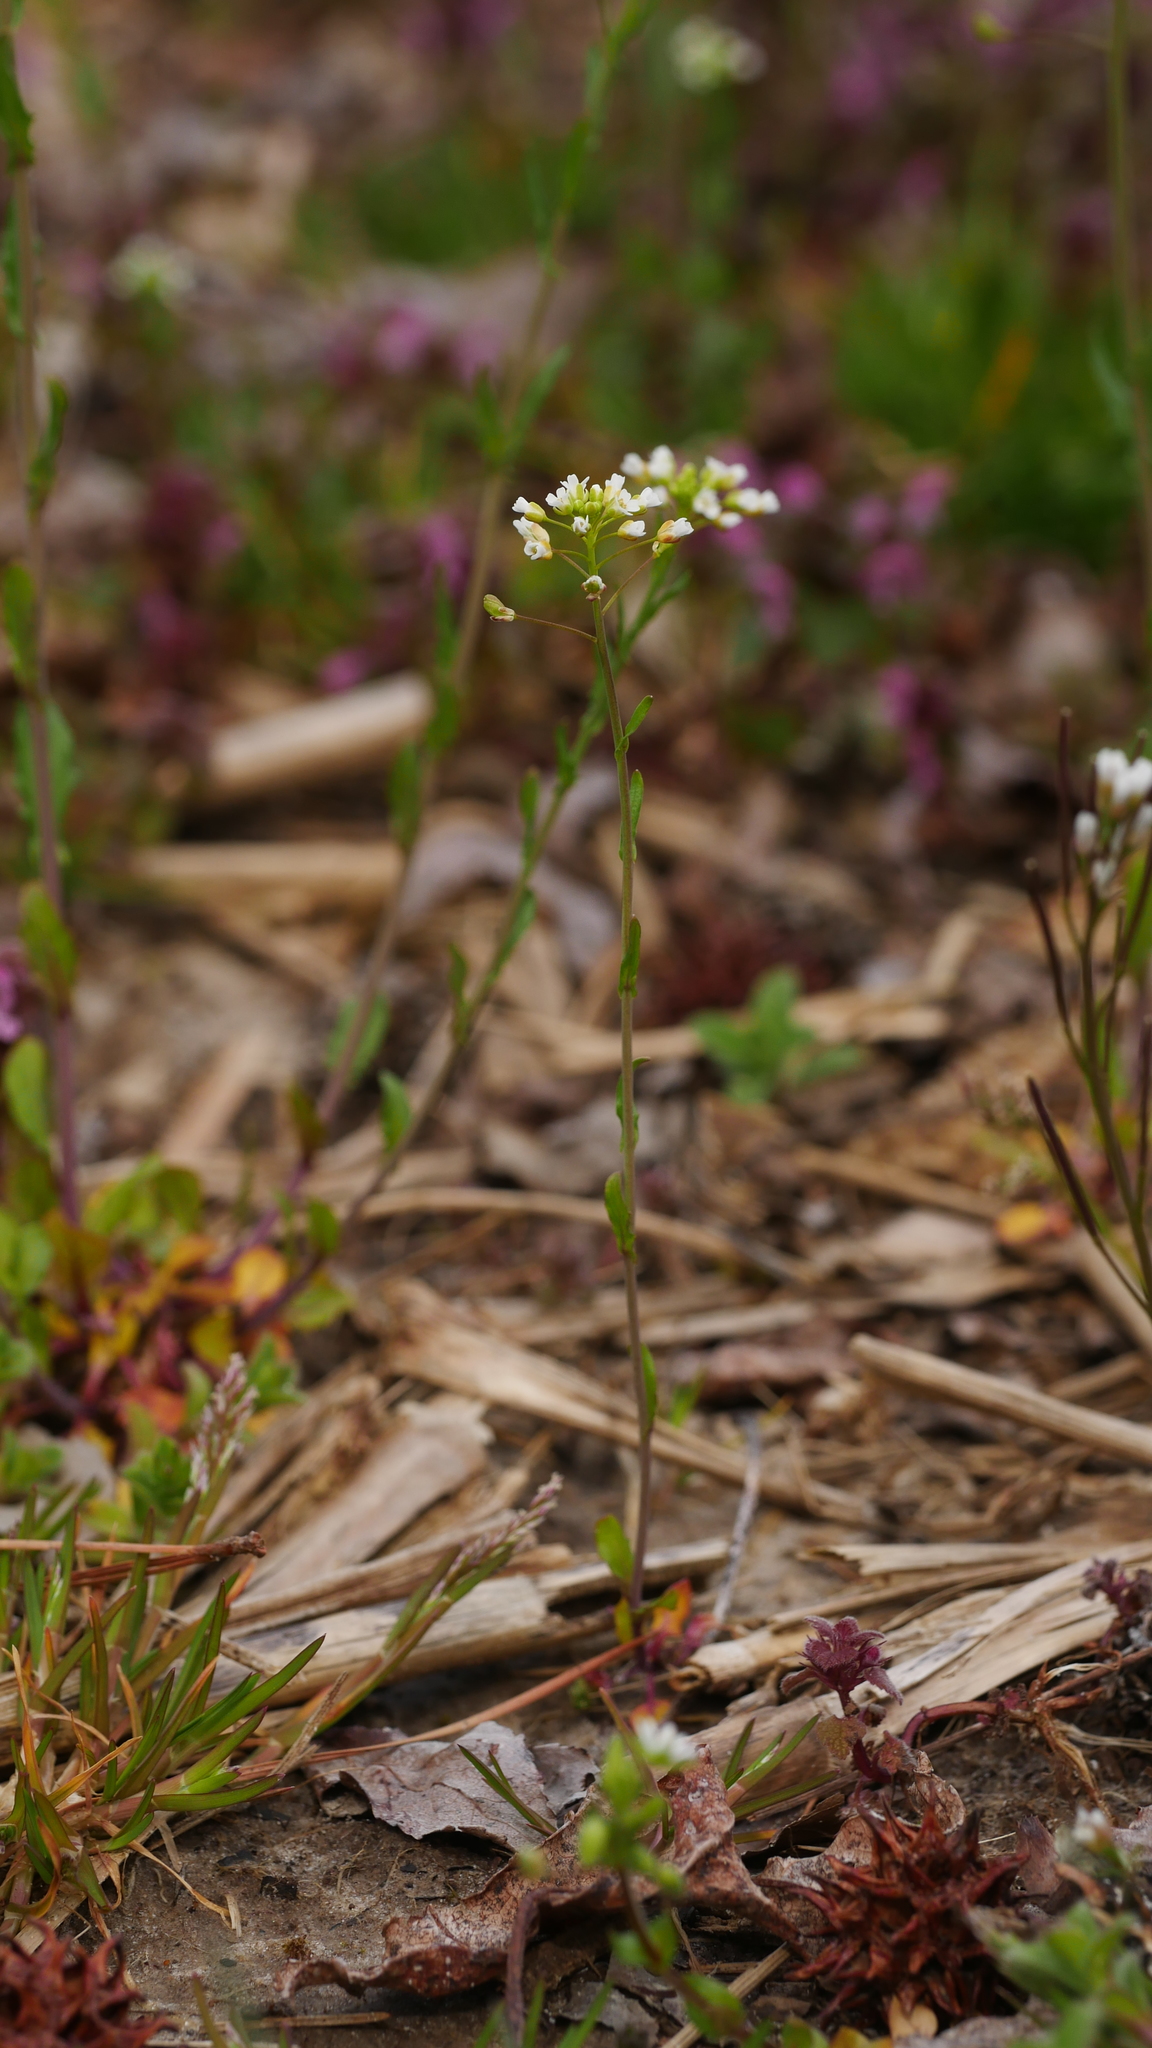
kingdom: Plantae
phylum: Tracheophyta
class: Magnoliopsida
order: Brassicales
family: Brassicaceae
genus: Mummenhoffia
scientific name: Mummenhoffia alliacea
